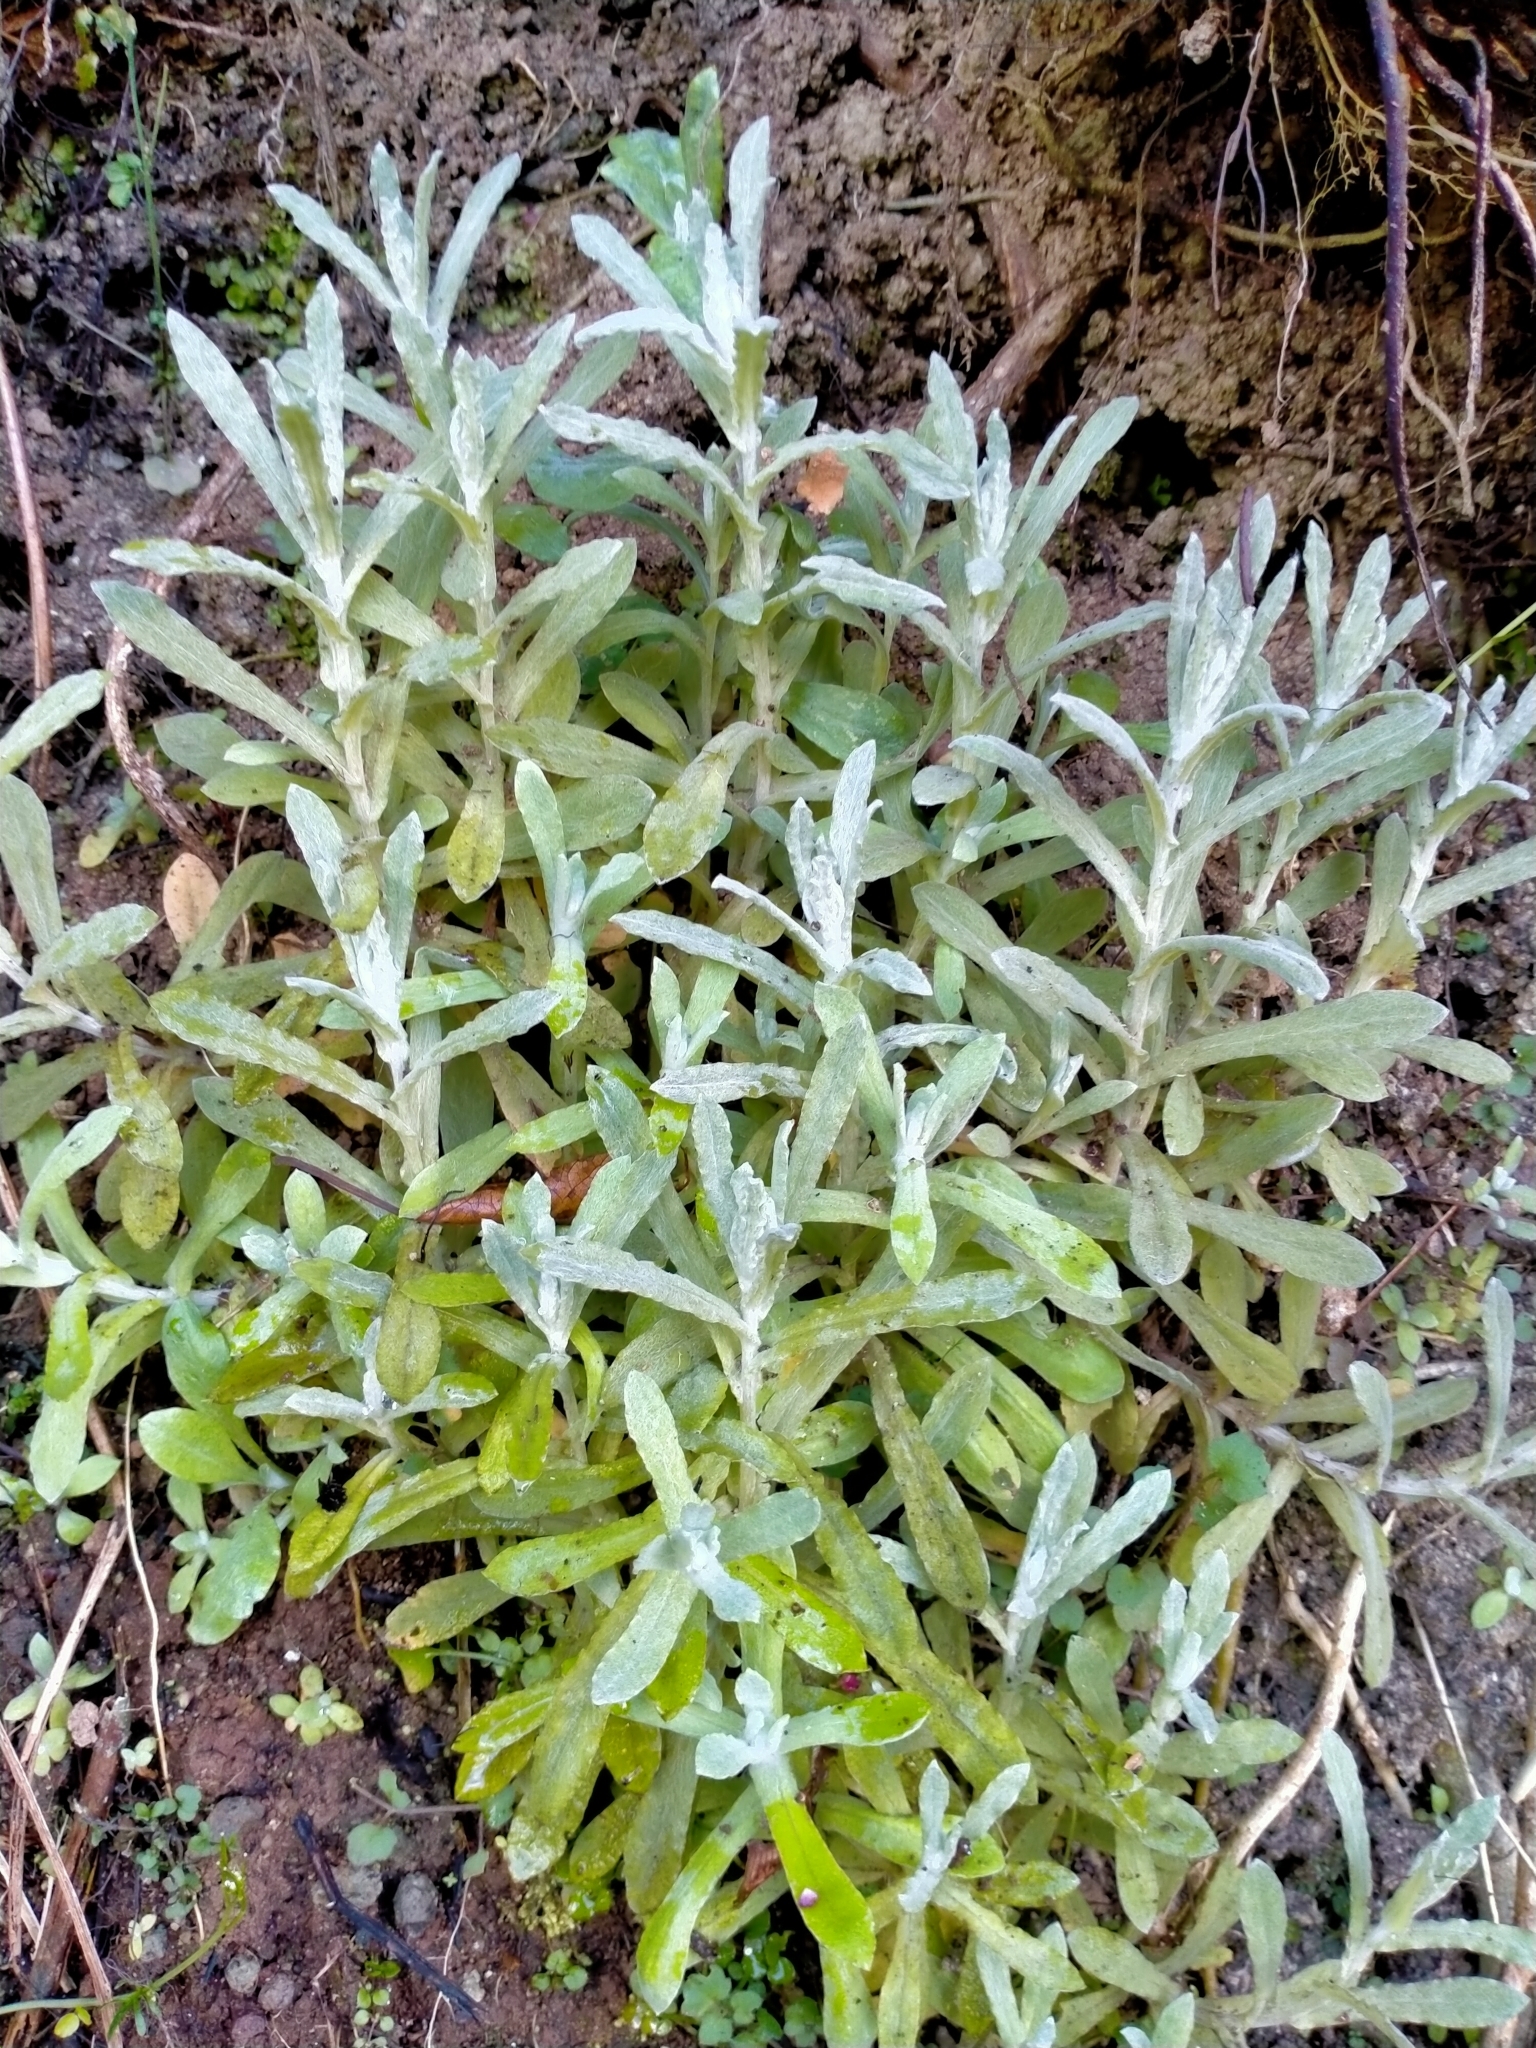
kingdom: Plantae
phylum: Tracheophyta
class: Magnoliopsida
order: Asterales
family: Asteraceae
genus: Helichrysum
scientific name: Helichrysum luteoalbum
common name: Daisy
